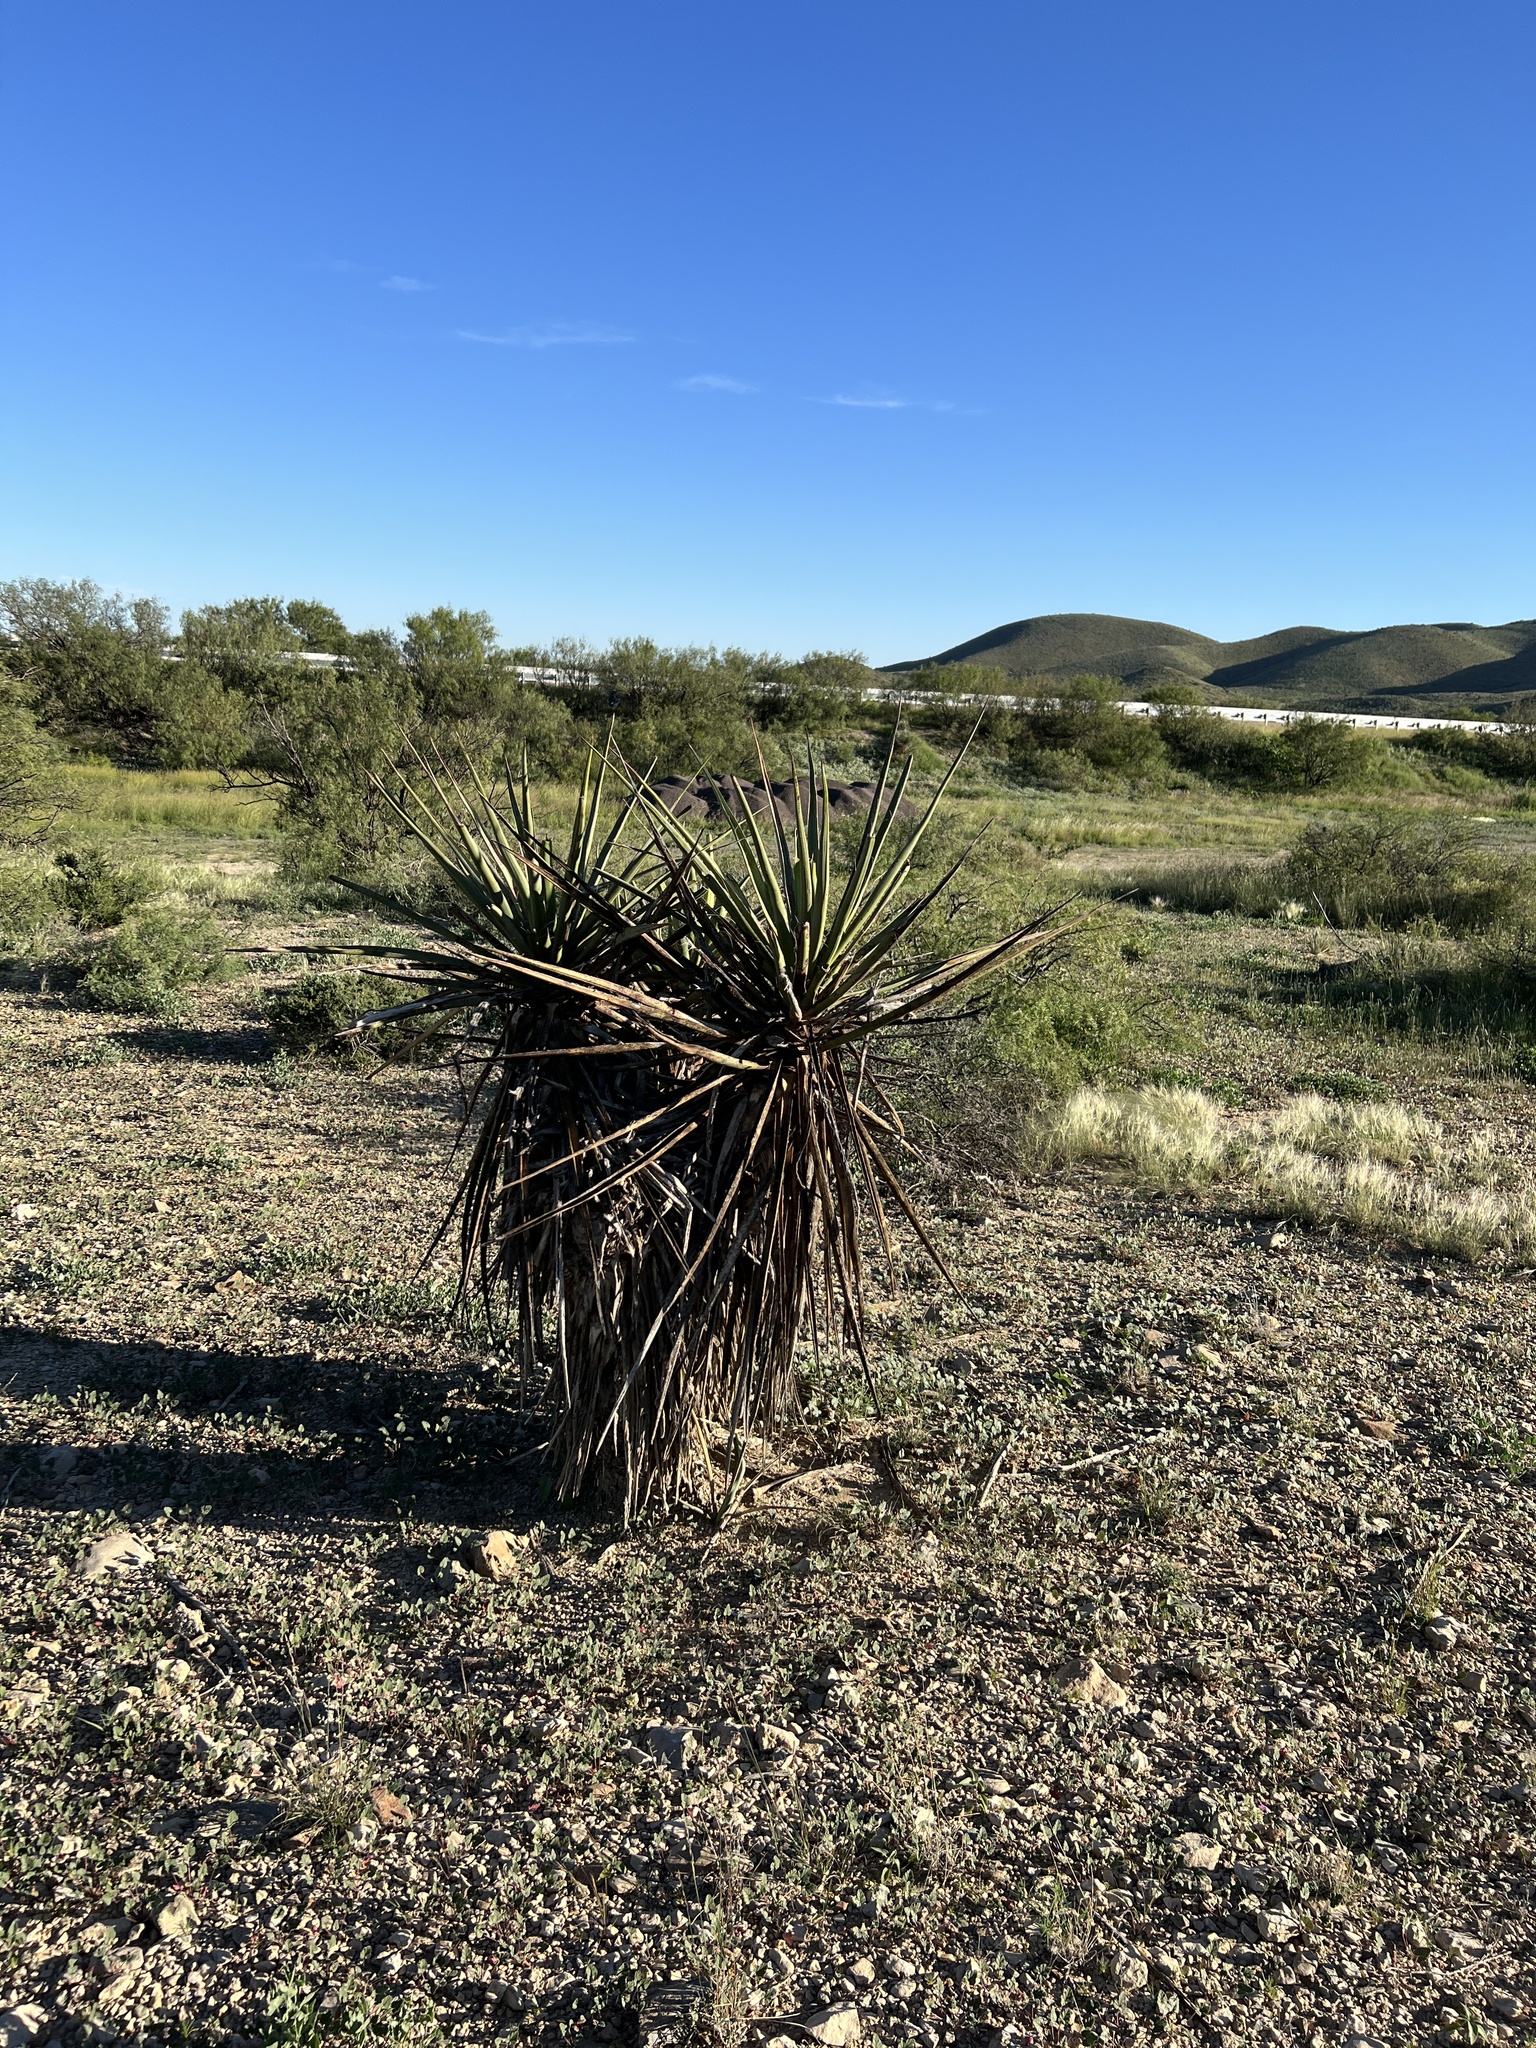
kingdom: Plantae
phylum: Tracheophyta
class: Liliopsida
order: Asparagales
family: Asparagaceae
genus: Yucca
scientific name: Yucca treculiana
